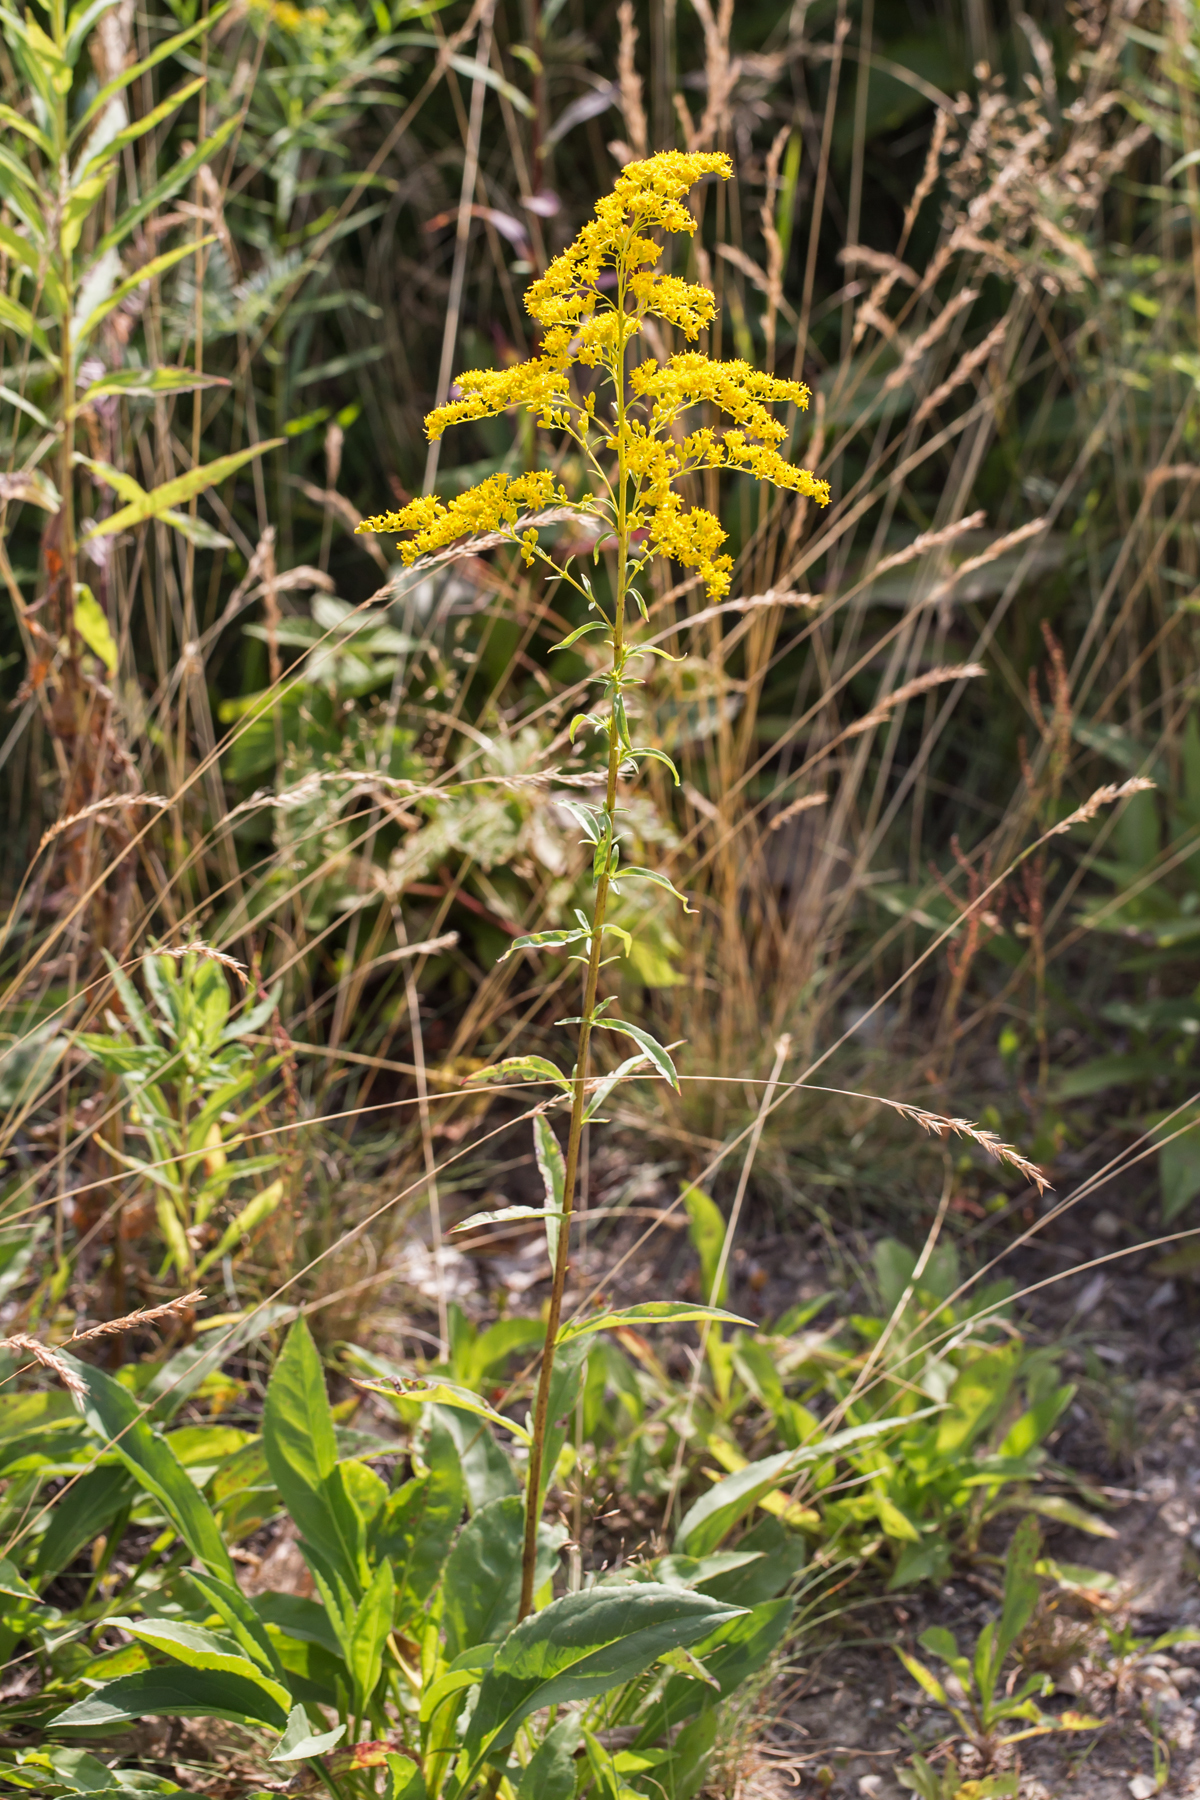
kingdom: Plantae
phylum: Tracheophyta
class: Magnoliopsida
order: Asterales
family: Asteraceae
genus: Solidago
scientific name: Solidago juncea
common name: Early goldenrod
